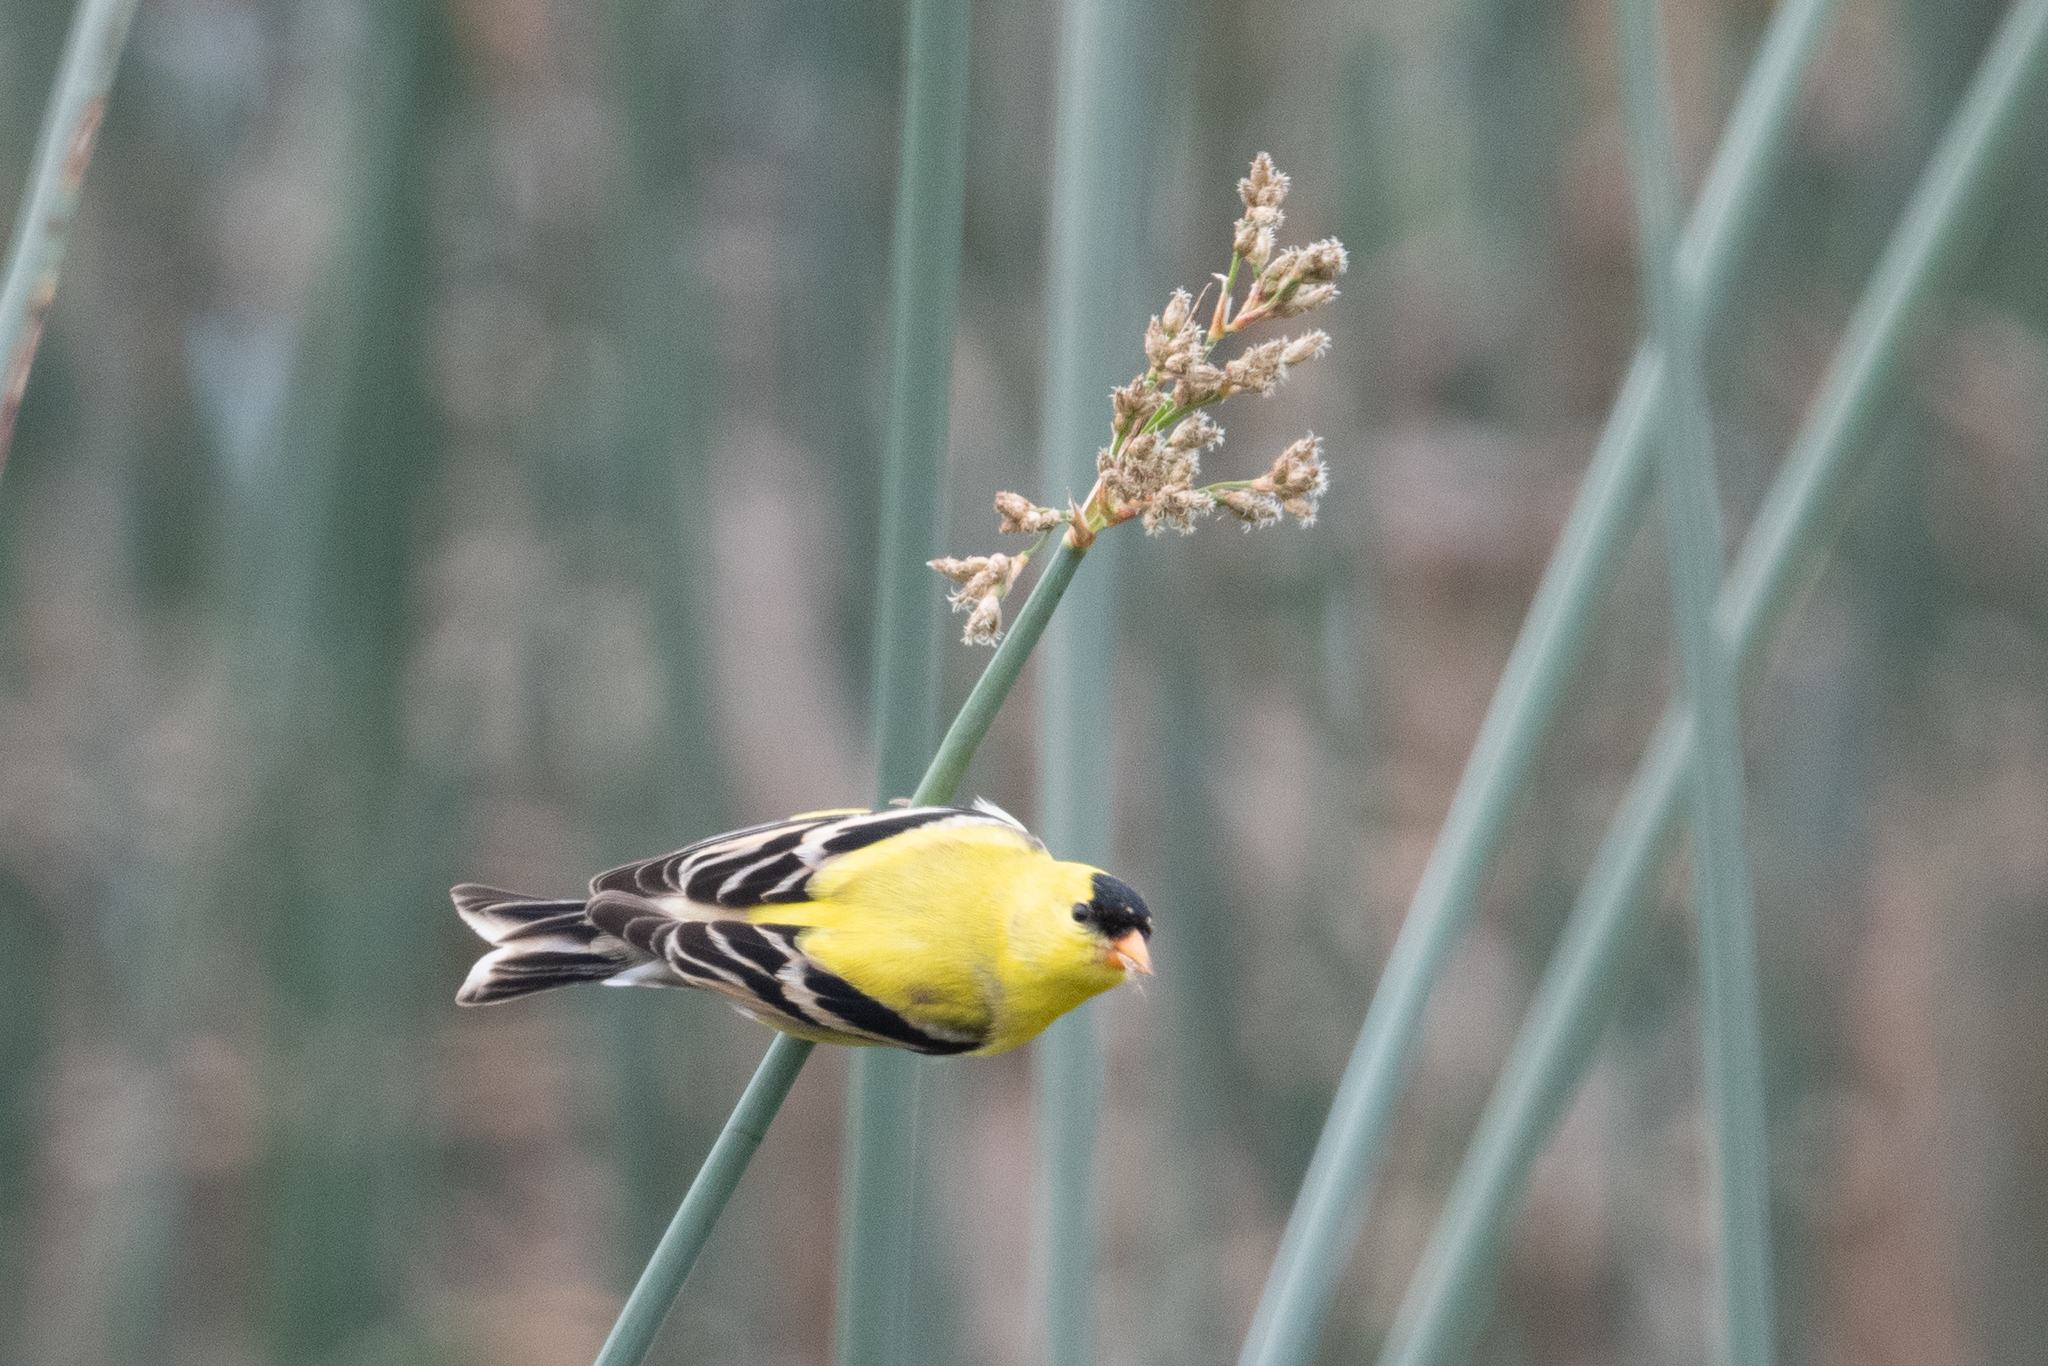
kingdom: Animalia
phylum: Chordata
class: Aves
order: Passeriformes
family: Fringillidae
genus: Spinus
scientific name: Spinus tristis
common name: American goldfinch
